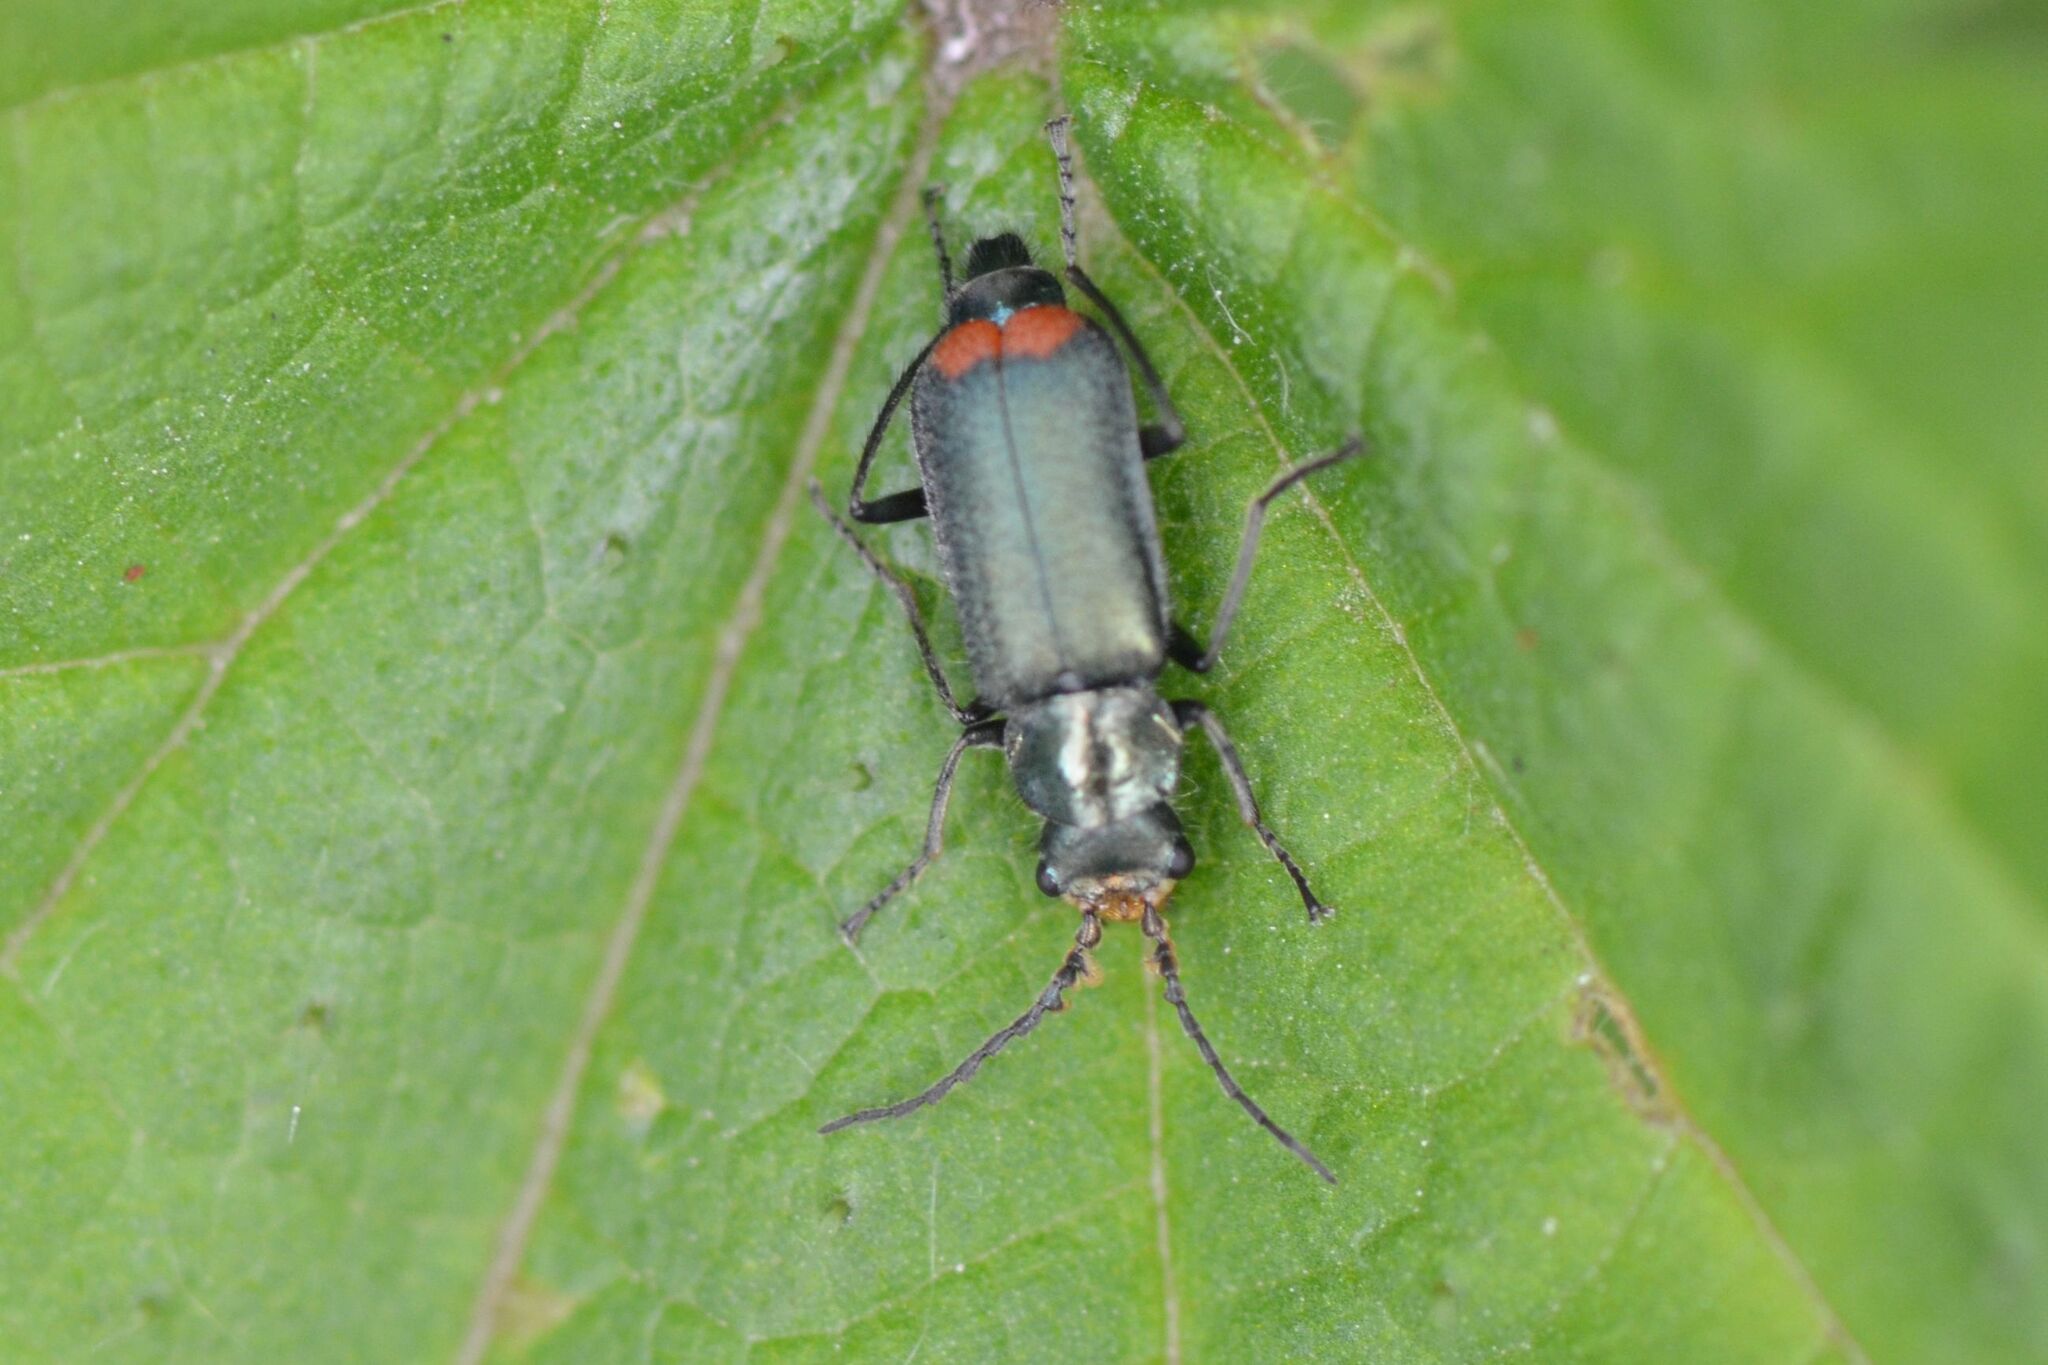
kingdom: Animalia
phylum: Arthropoda
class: Insecta
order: Coleoptera
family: Melyridae
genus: Malachius
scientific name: Malachius bipustulatus
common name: Malachite beetle
